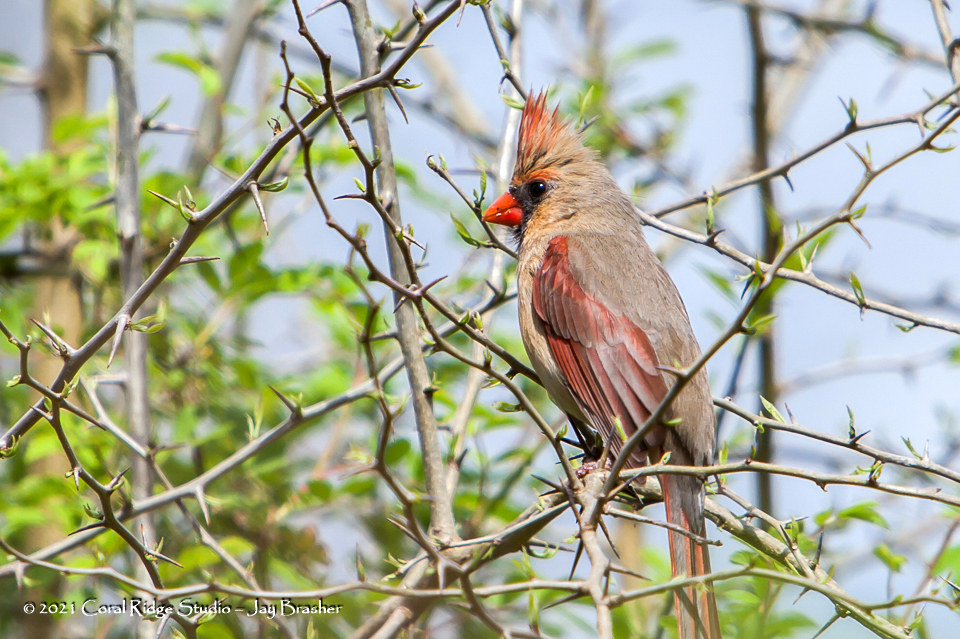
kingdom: Animalia
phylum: Chordata
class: Aves
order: Passeriformes
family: Cardinalidae
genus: Cardinalis
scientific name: Cardinalis cardinalis
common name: Northern cardinal
